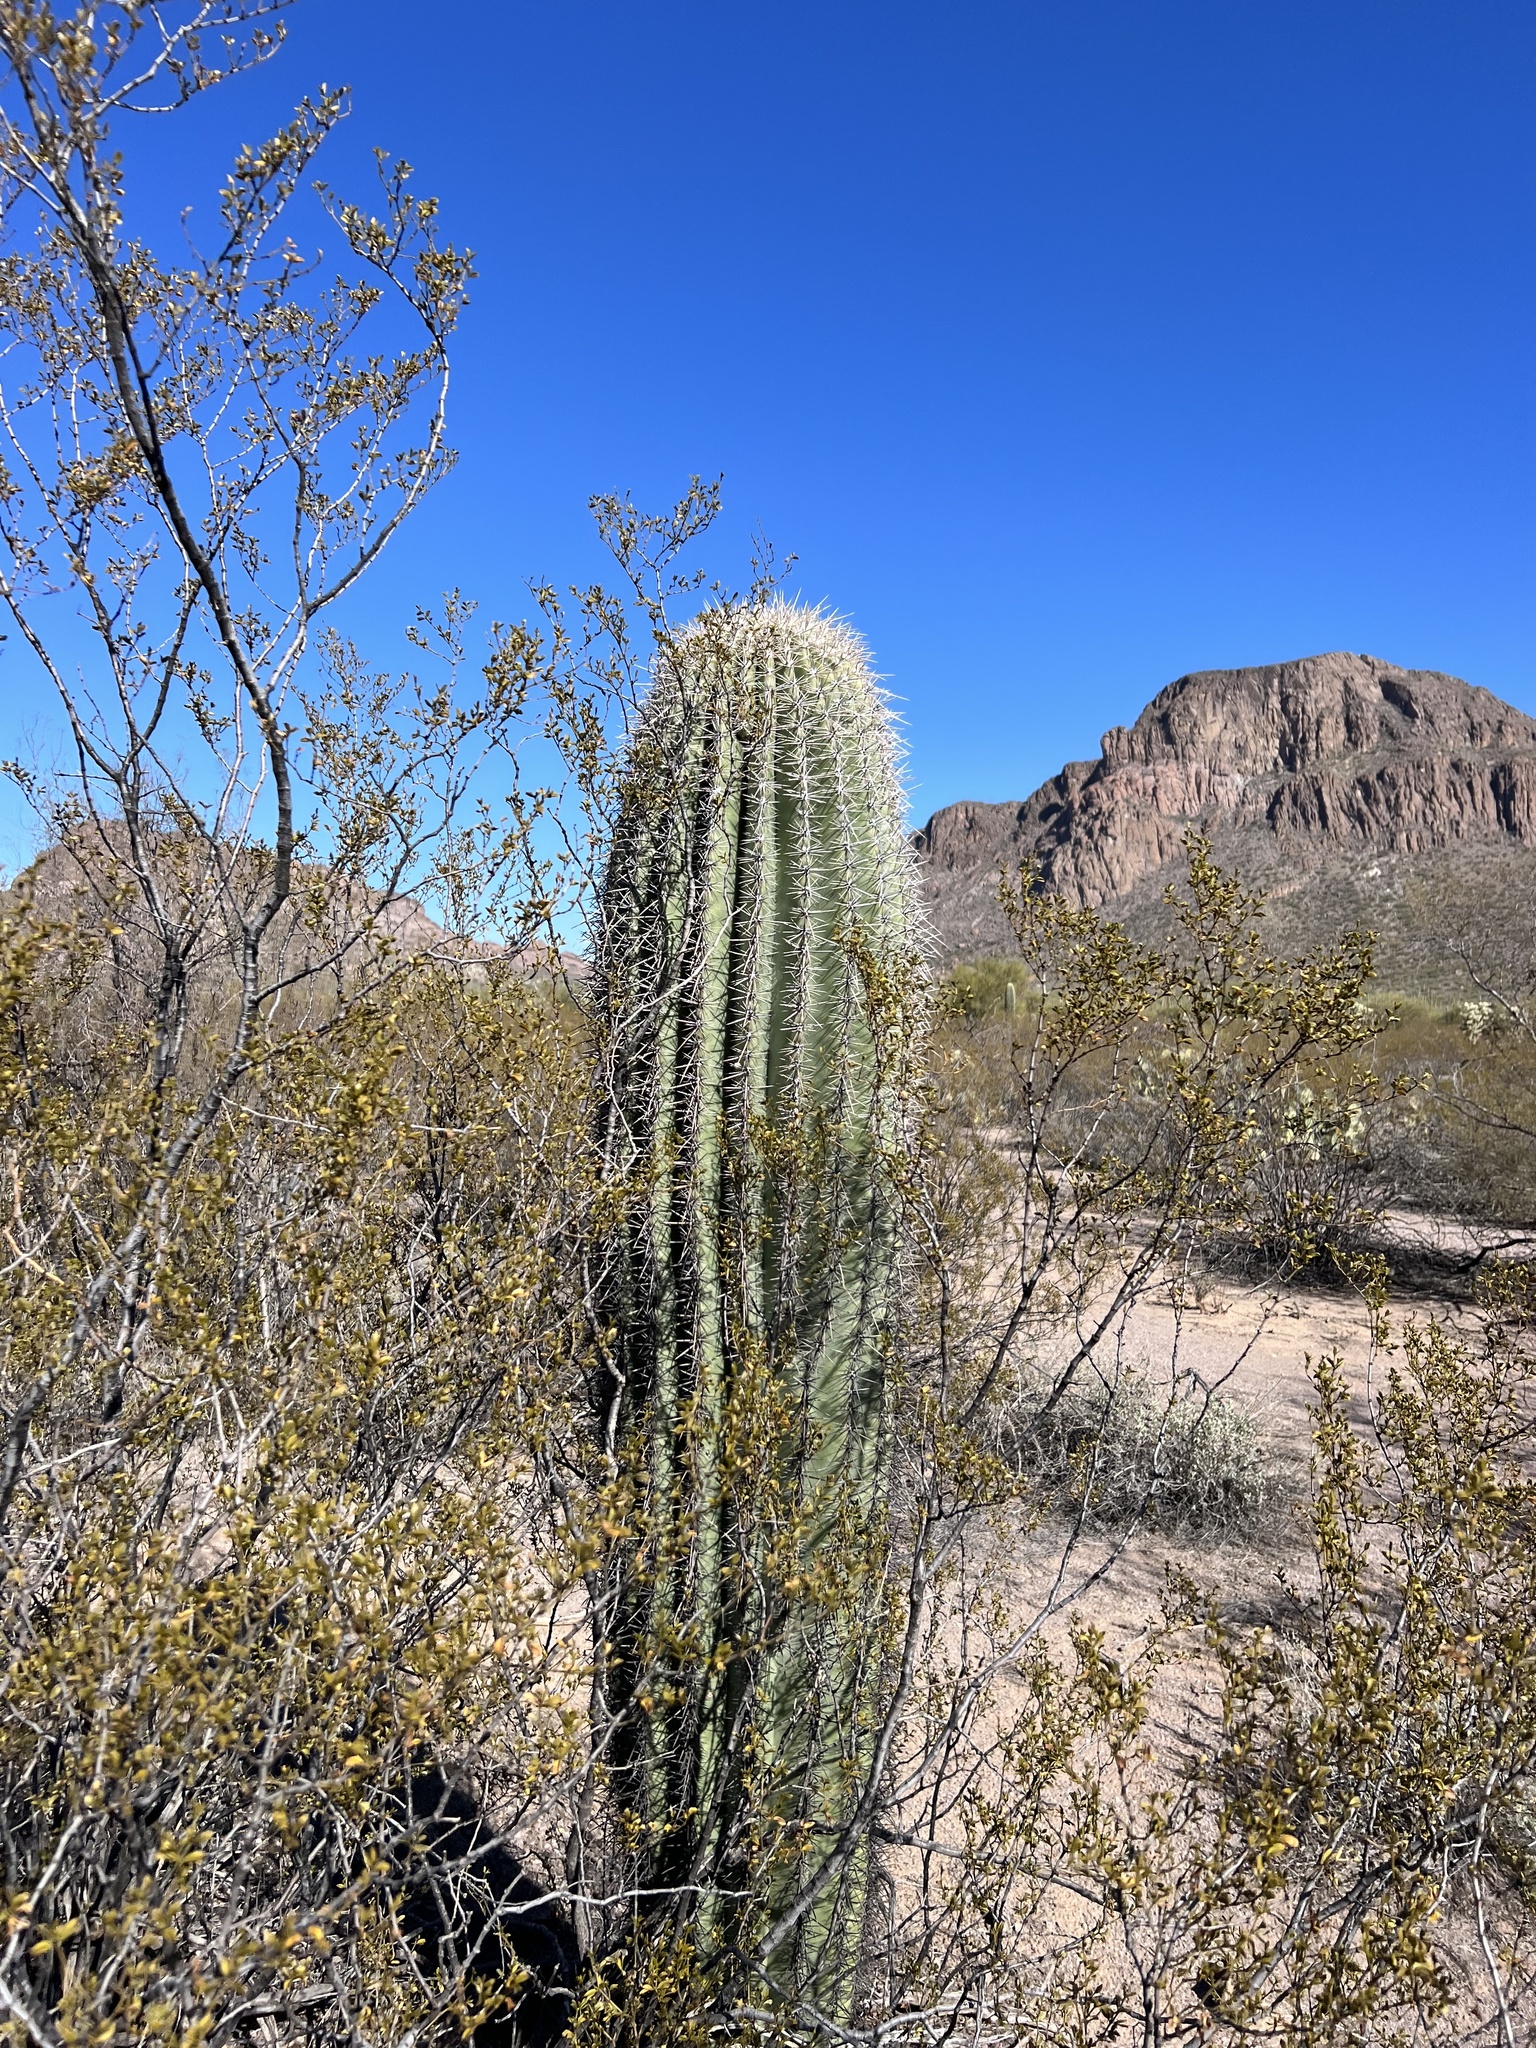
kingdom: Plantae
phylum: Tracheophyta
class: Magnoliopsida
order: Caryophyllales
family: Cactaceae
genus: Carnegiea
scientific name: Carnegiea gigantea
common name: Saguaro
